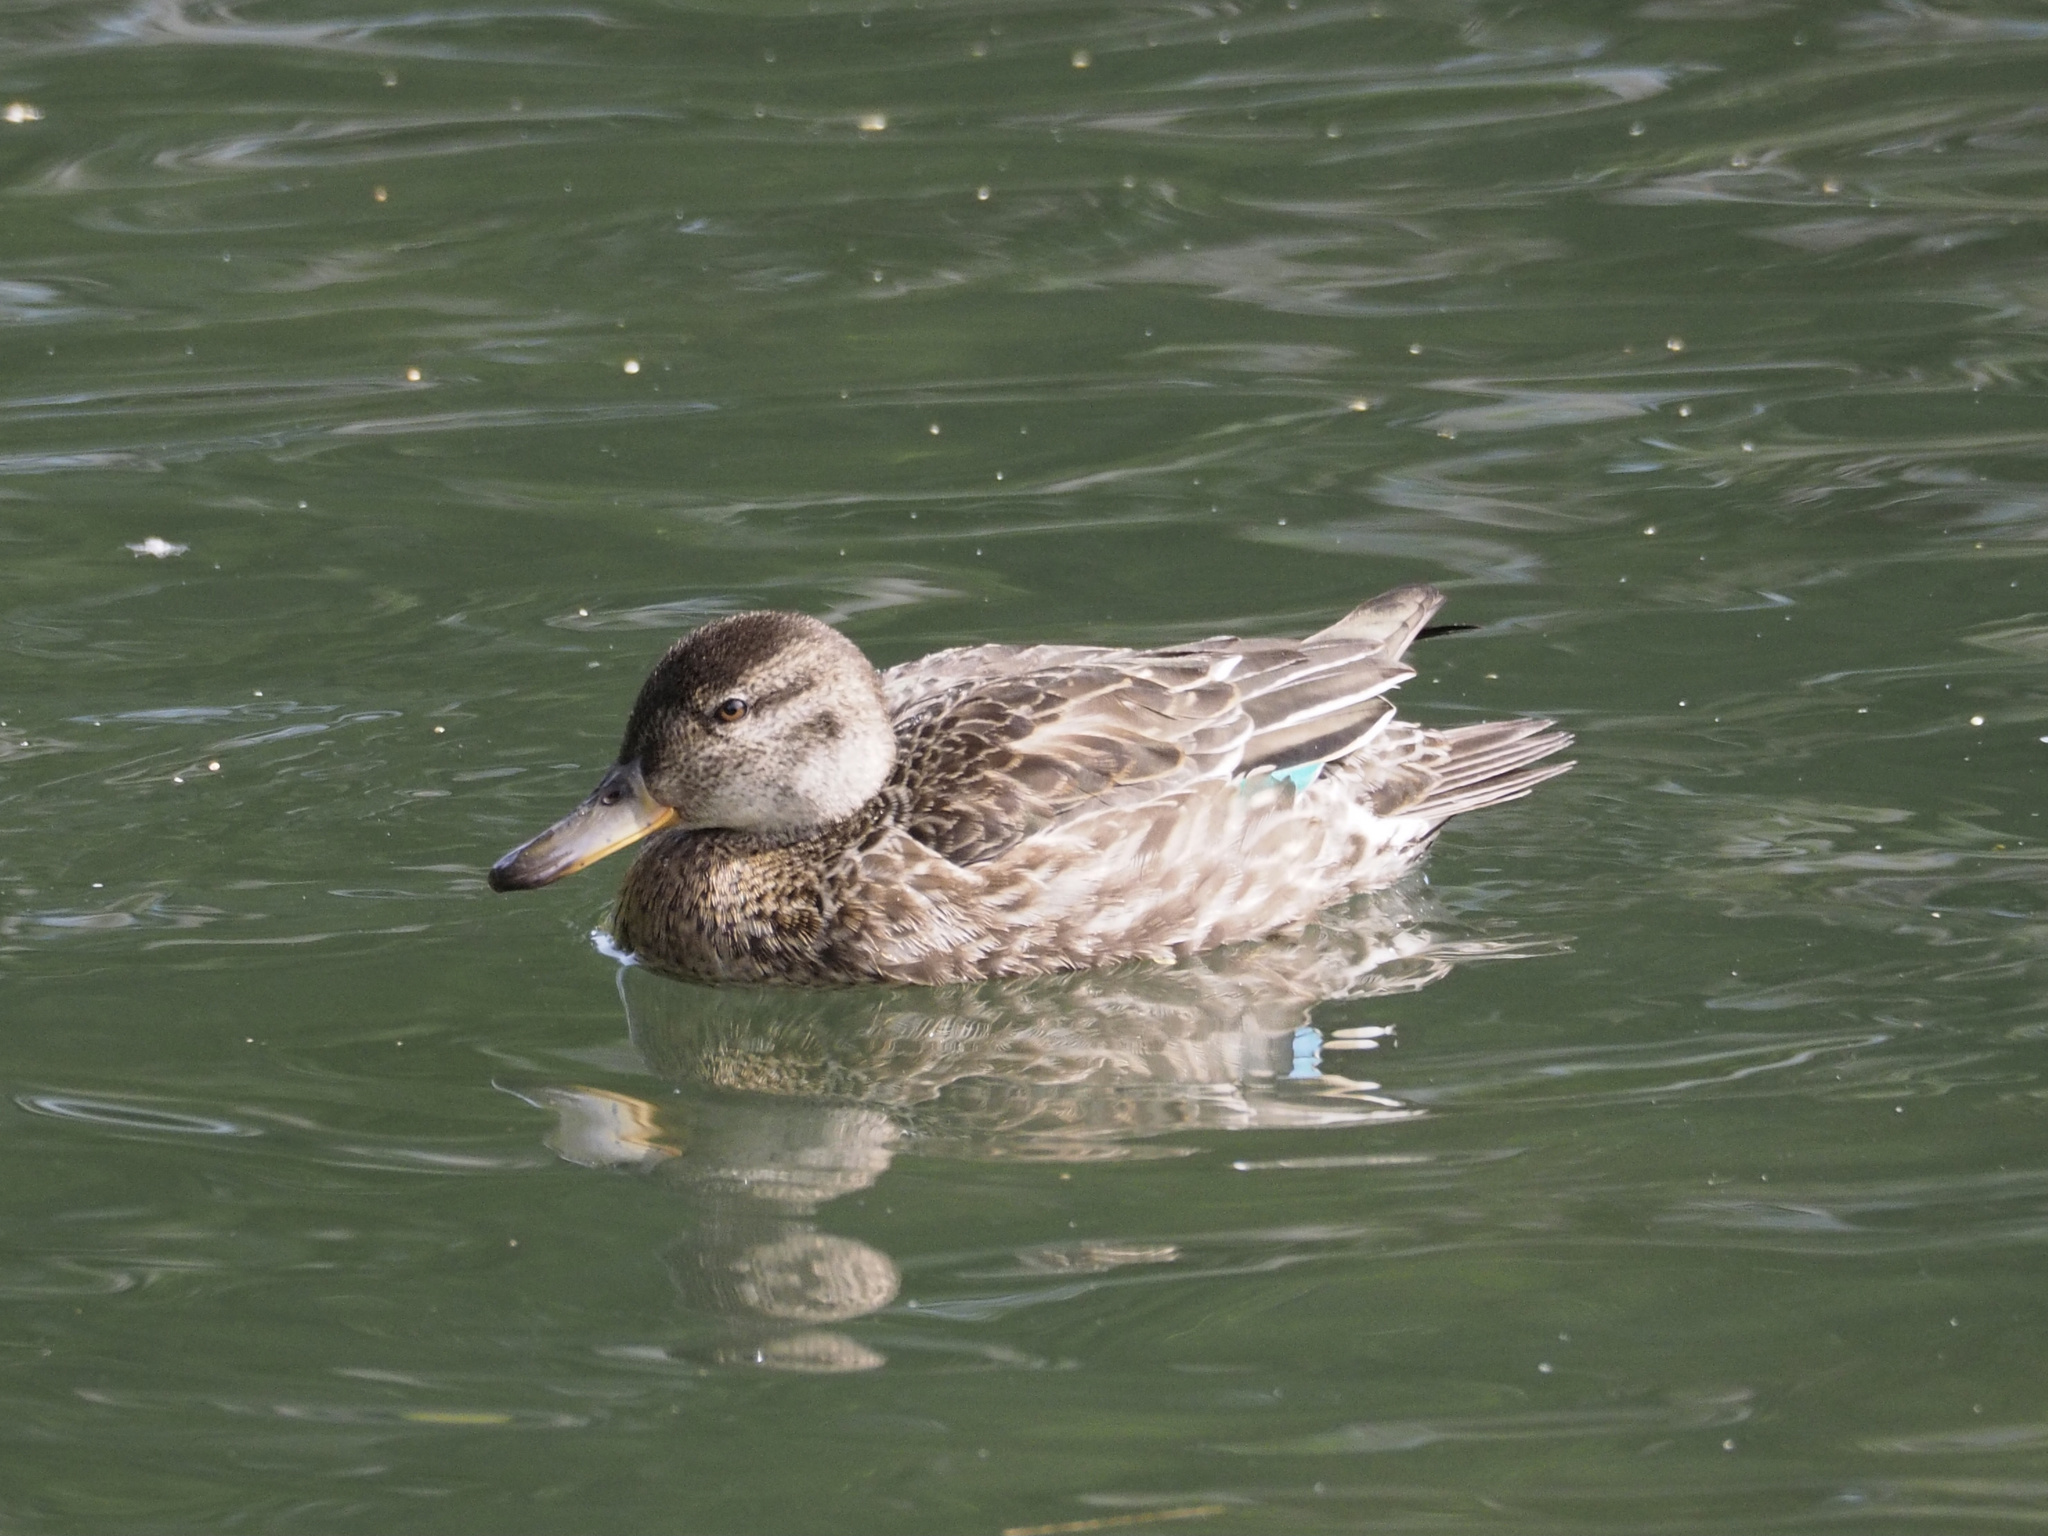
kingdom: Animalia
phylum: Chordata
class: Aves
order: Anseriformes
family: Anatidae
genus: Anas
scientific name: Anas crecca
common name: Eurasian teal
